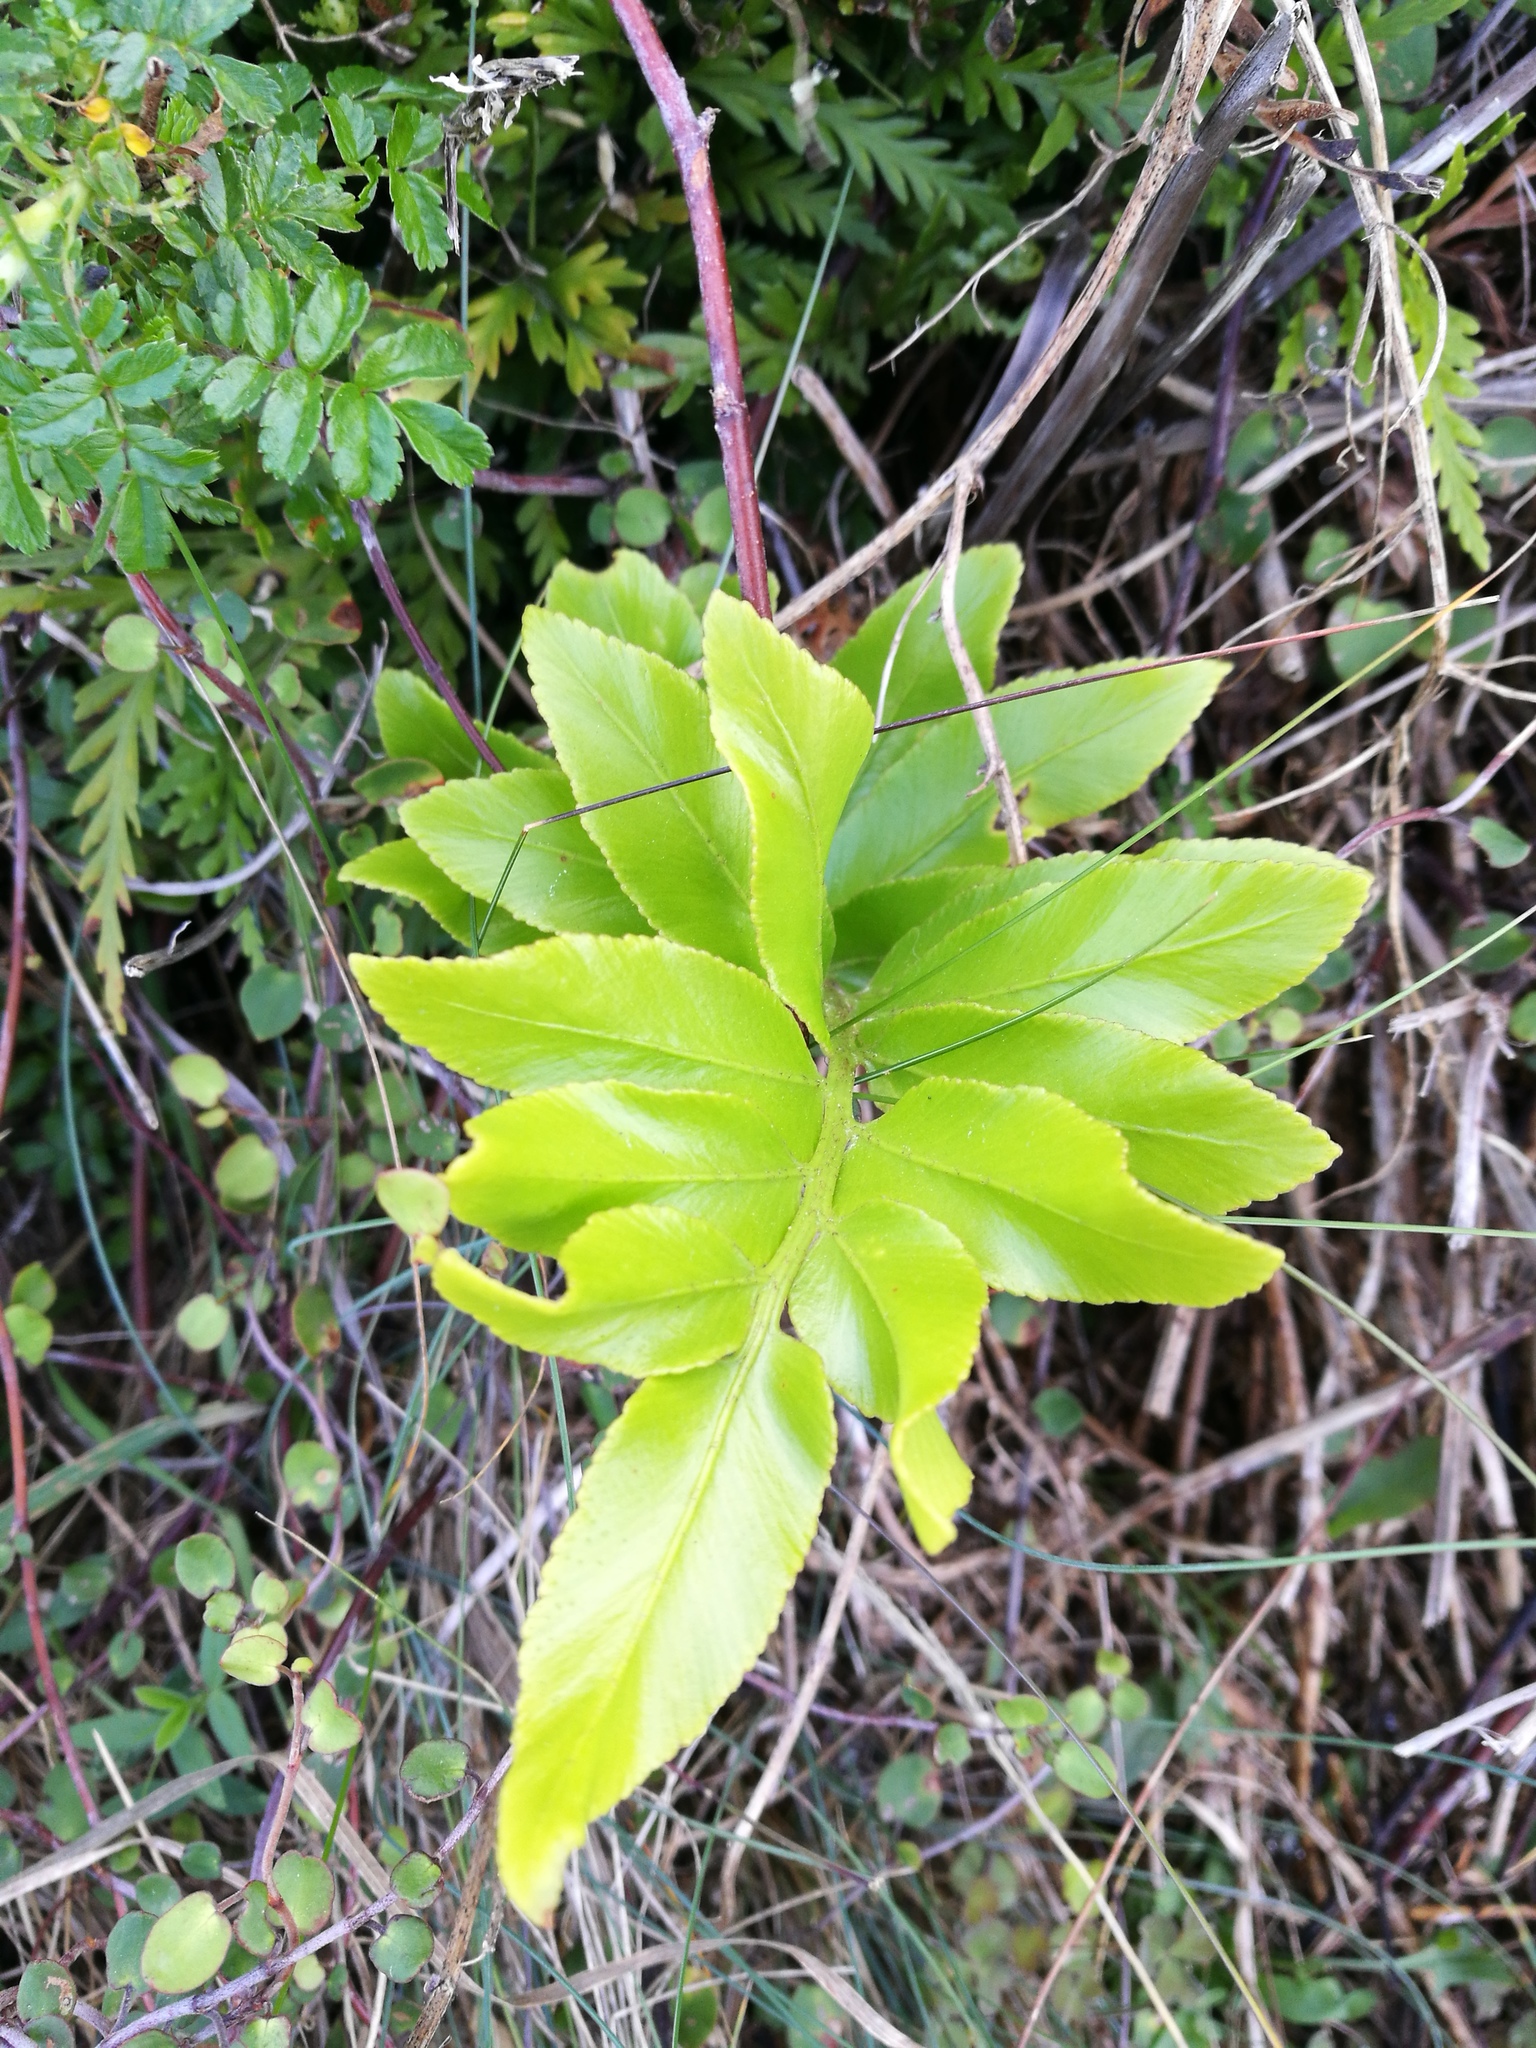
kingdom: Plantae
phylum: Tracheophyta
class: Polypodiopsida
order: Polypodiales
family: Aspleniaceae
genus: Asplenium
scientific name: Asplenium oblongifolium
